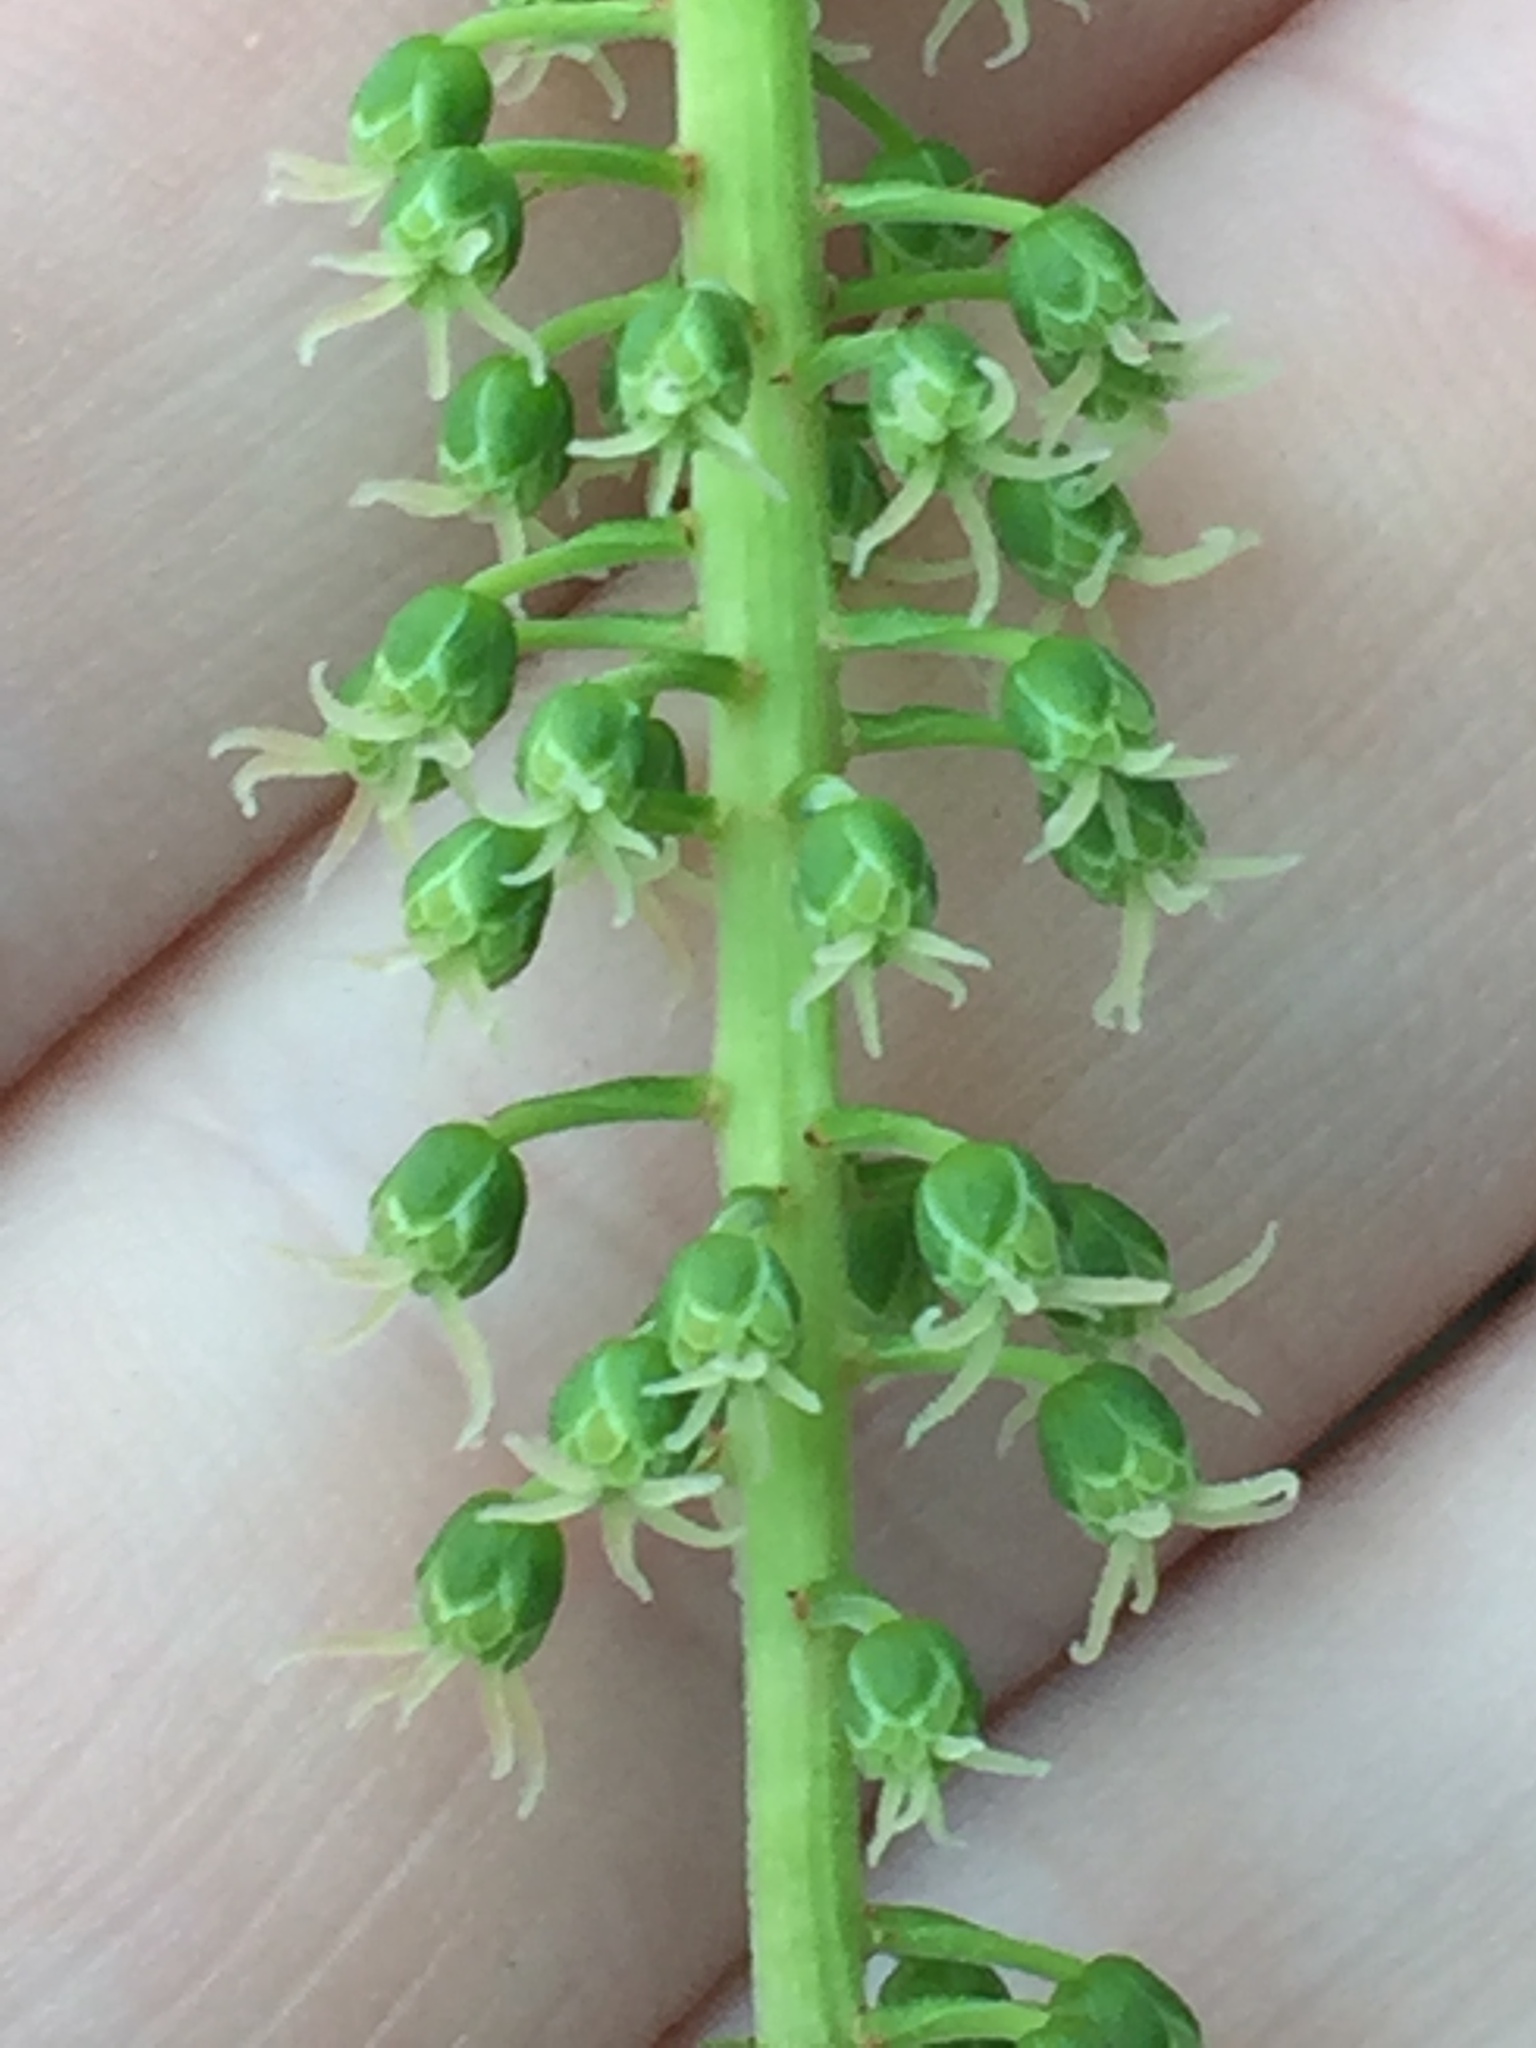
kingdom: Plantae
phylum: Tracheophyta
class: Magnoliopsida
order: Cucurbitales
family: Coriariaceae
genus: Coriaria
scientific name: Coriaria arborea
